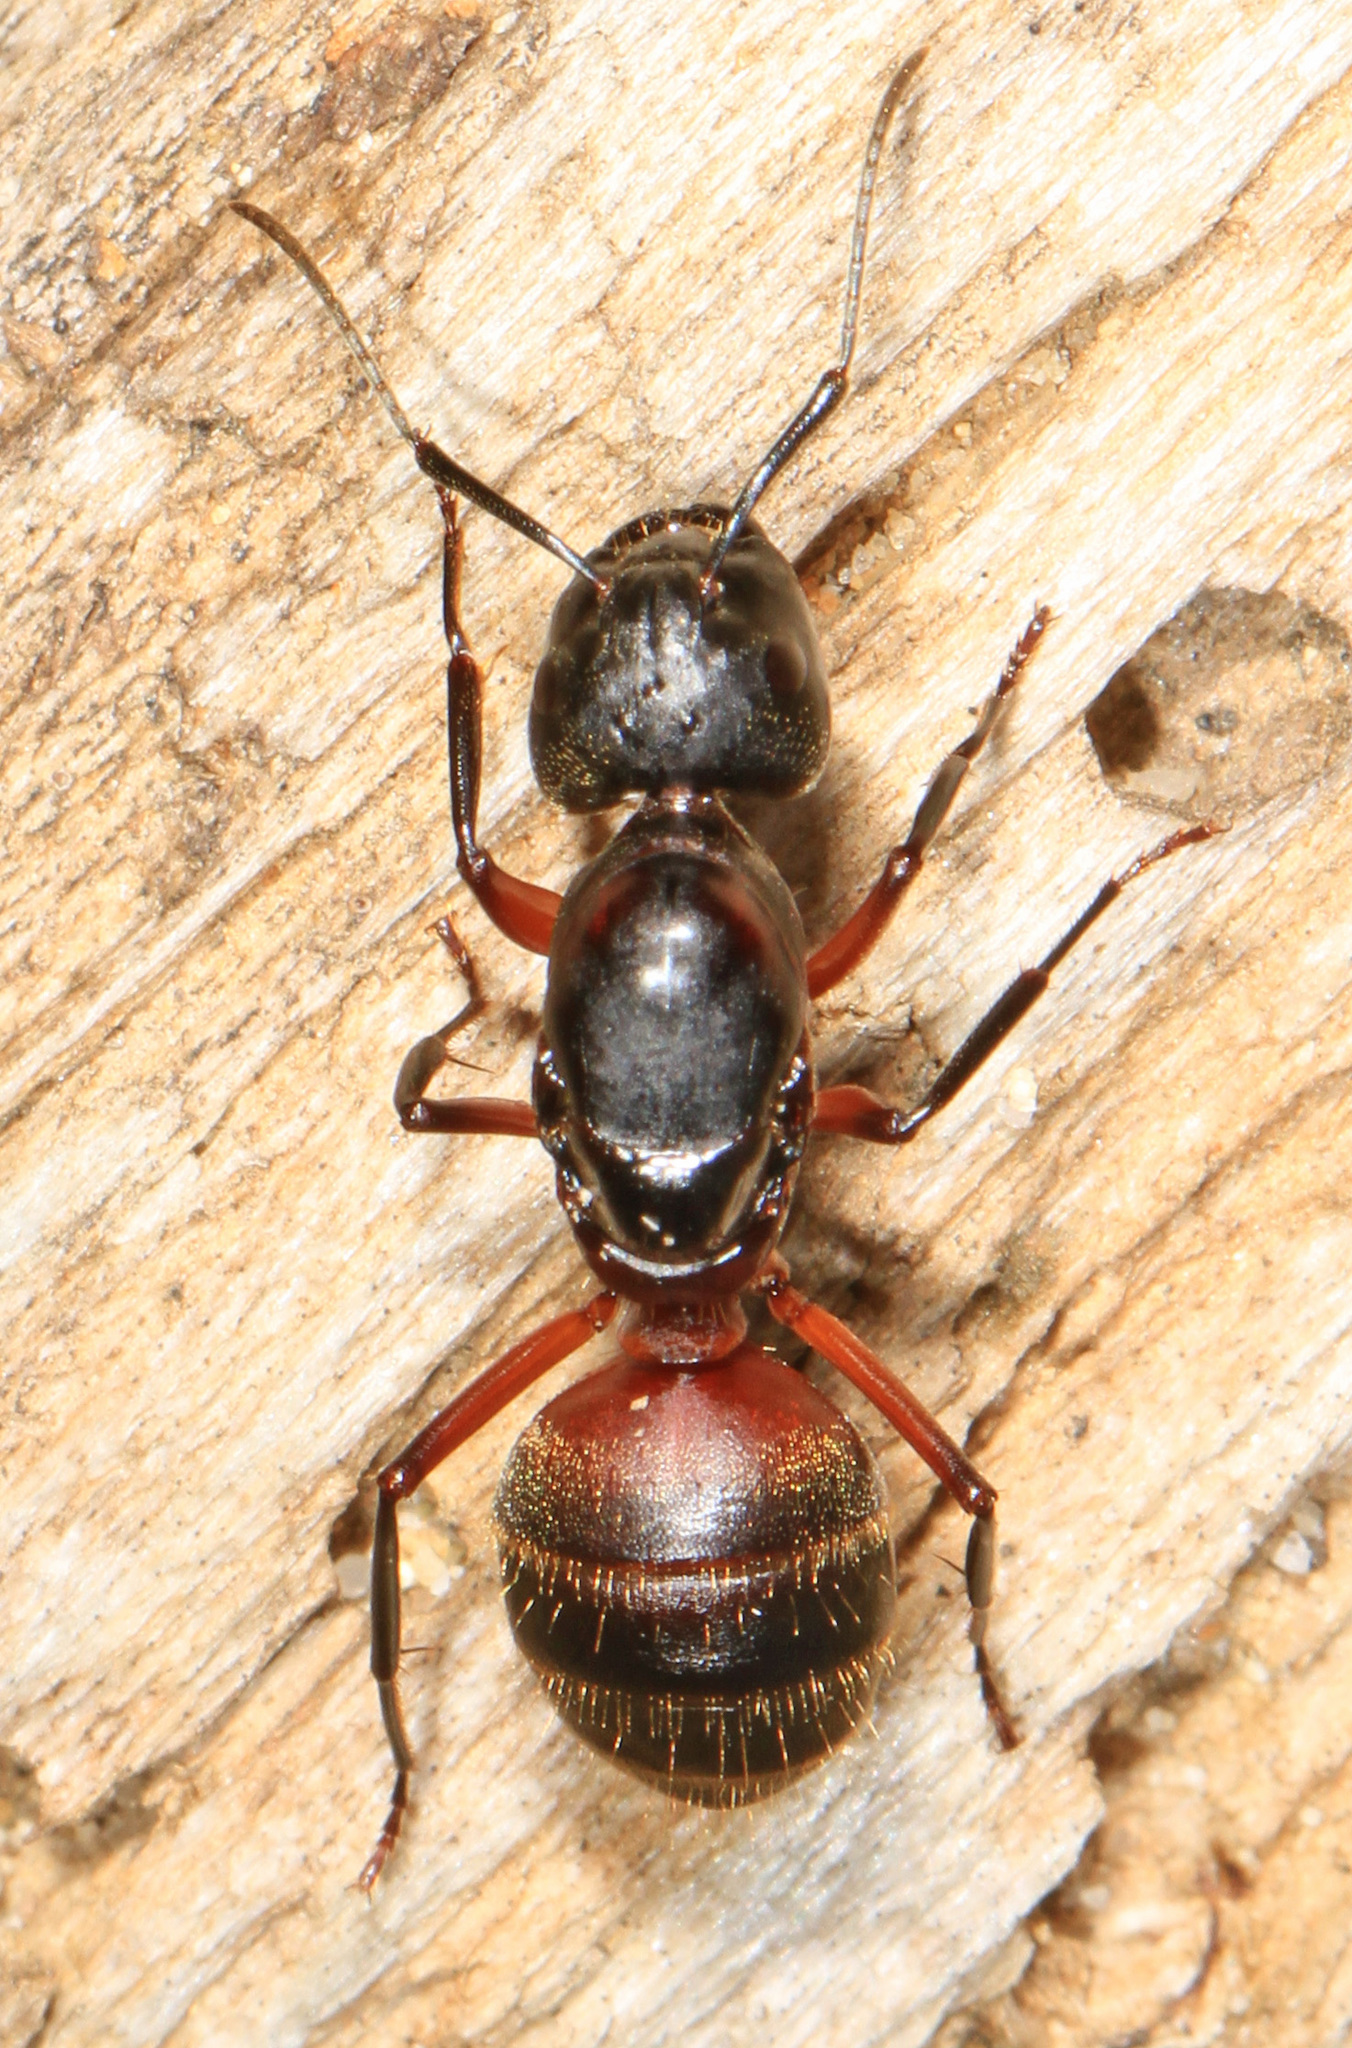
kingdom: Animalia
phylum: Arthropoda
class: Insecta
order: Hymenoptera
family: Formicidae
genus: Camponotus
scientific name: Camponotus chromaiodes
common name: Red carpenter ant
